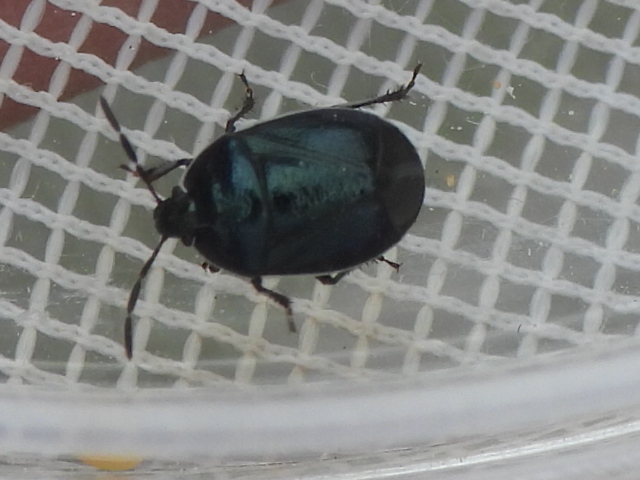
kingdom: Animalia
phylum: Arthropoda
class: Insecta
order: Hemiptera
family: Cydnidae
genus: Sehirus
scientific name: Sehirus cinctus
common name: White-margined burrower bug
